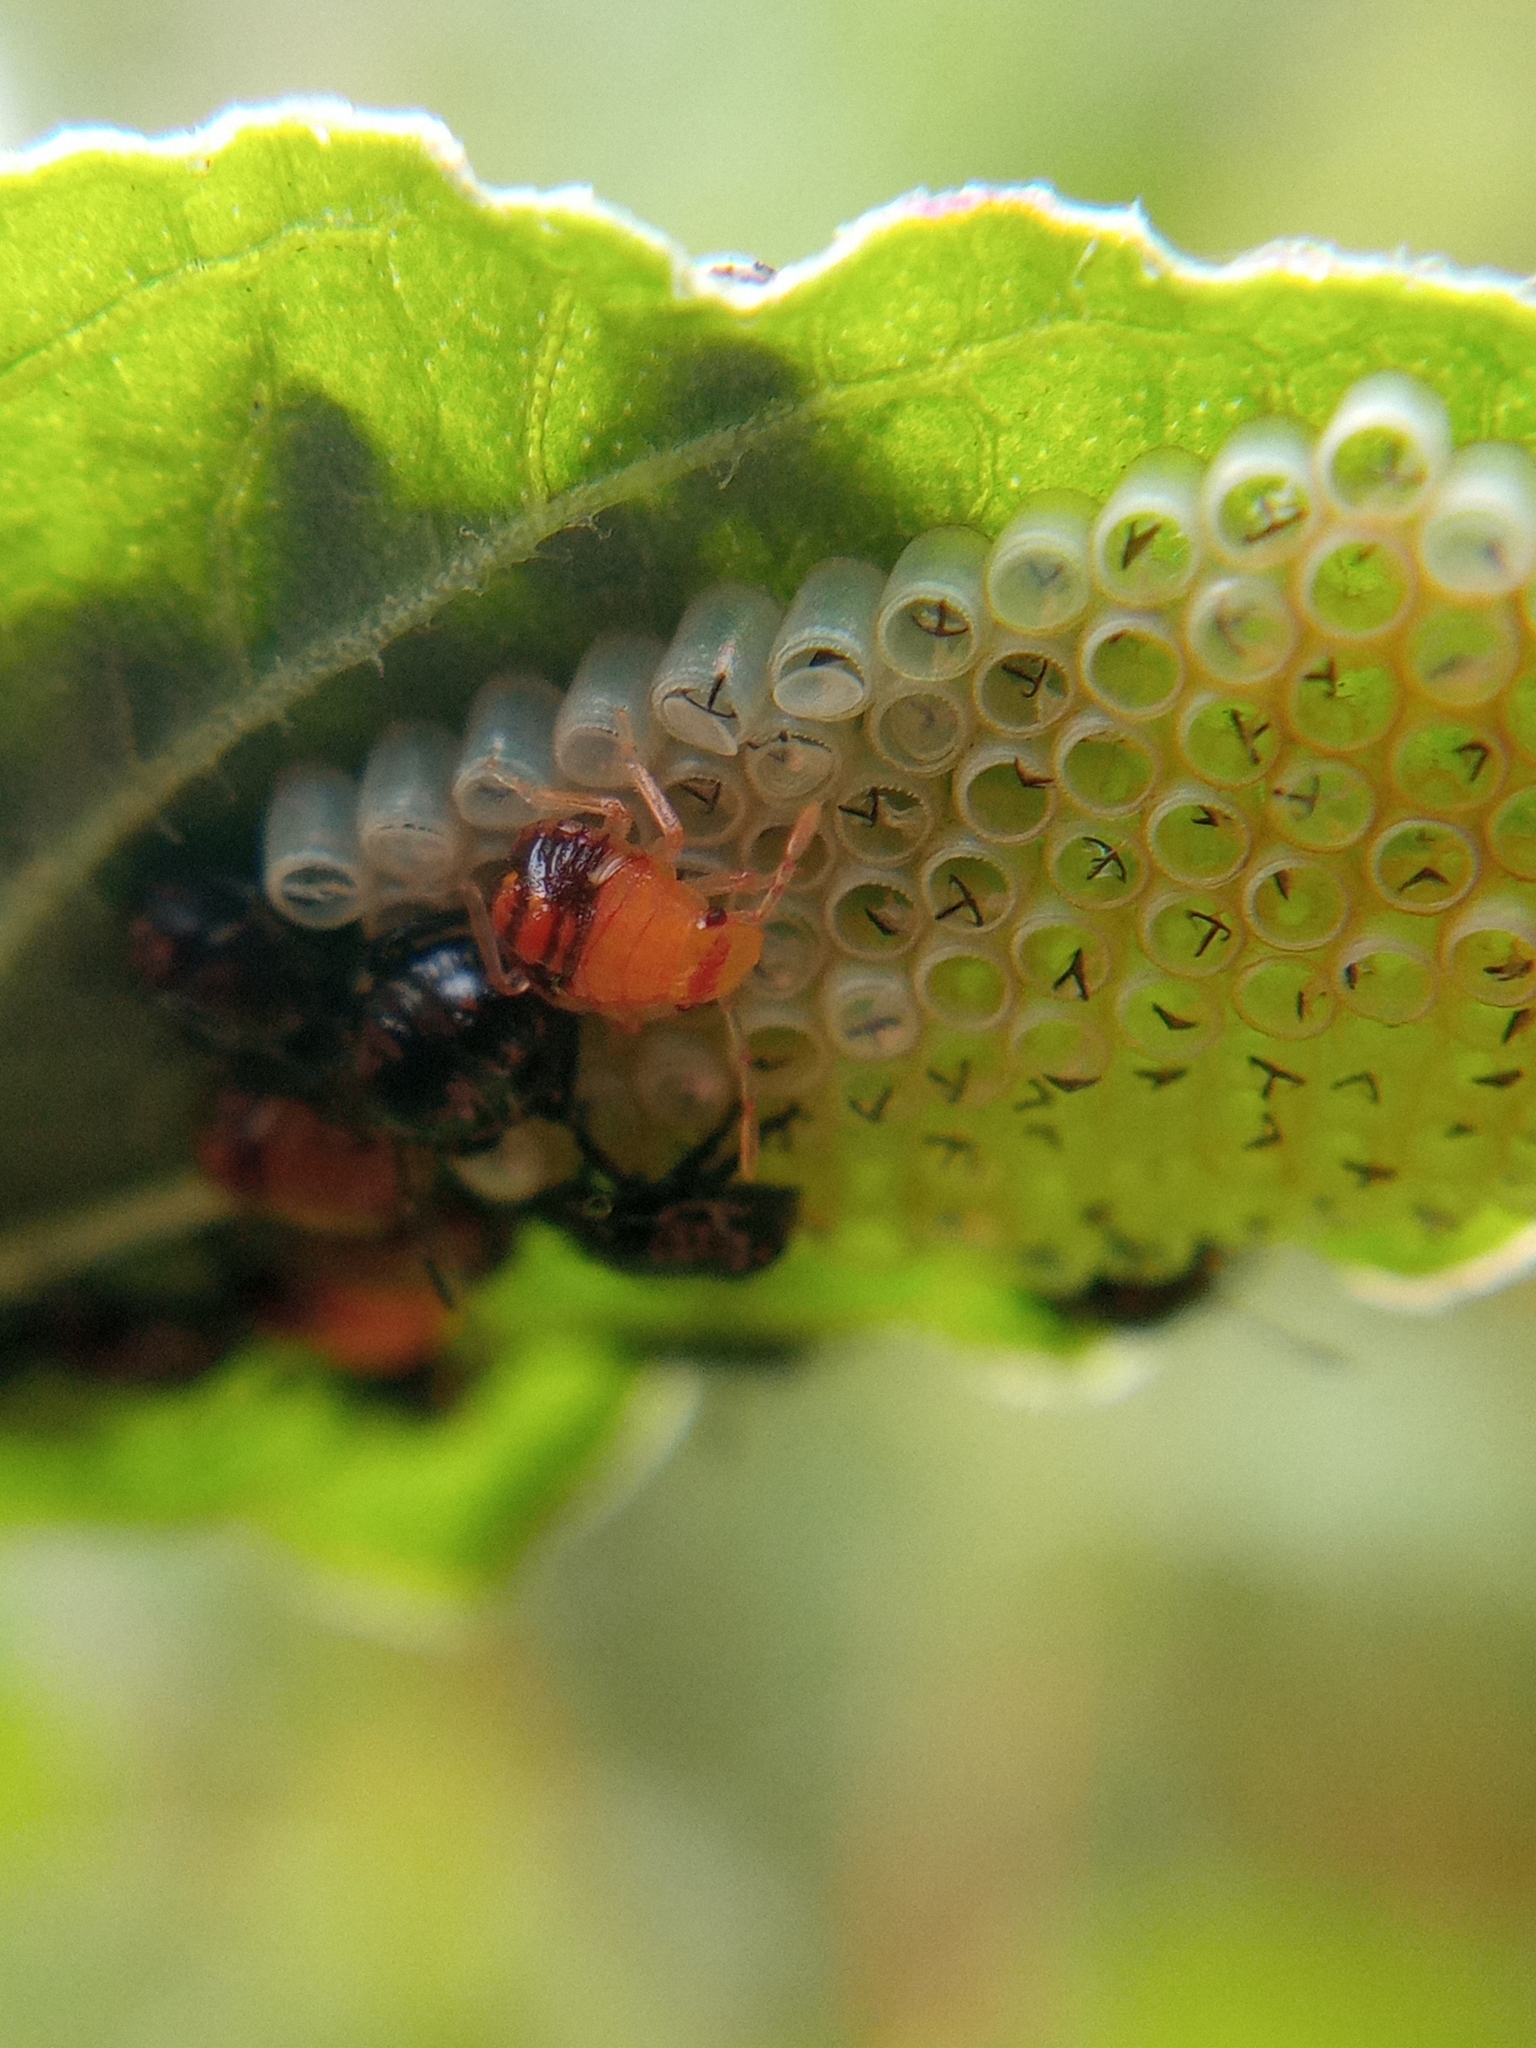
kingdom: Animalia
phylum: Arthropoda
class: Insecta
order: Hemiptera
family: Pentatomidae
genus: Nezara
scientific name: Nezara viridula
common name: Southern green stink bug
